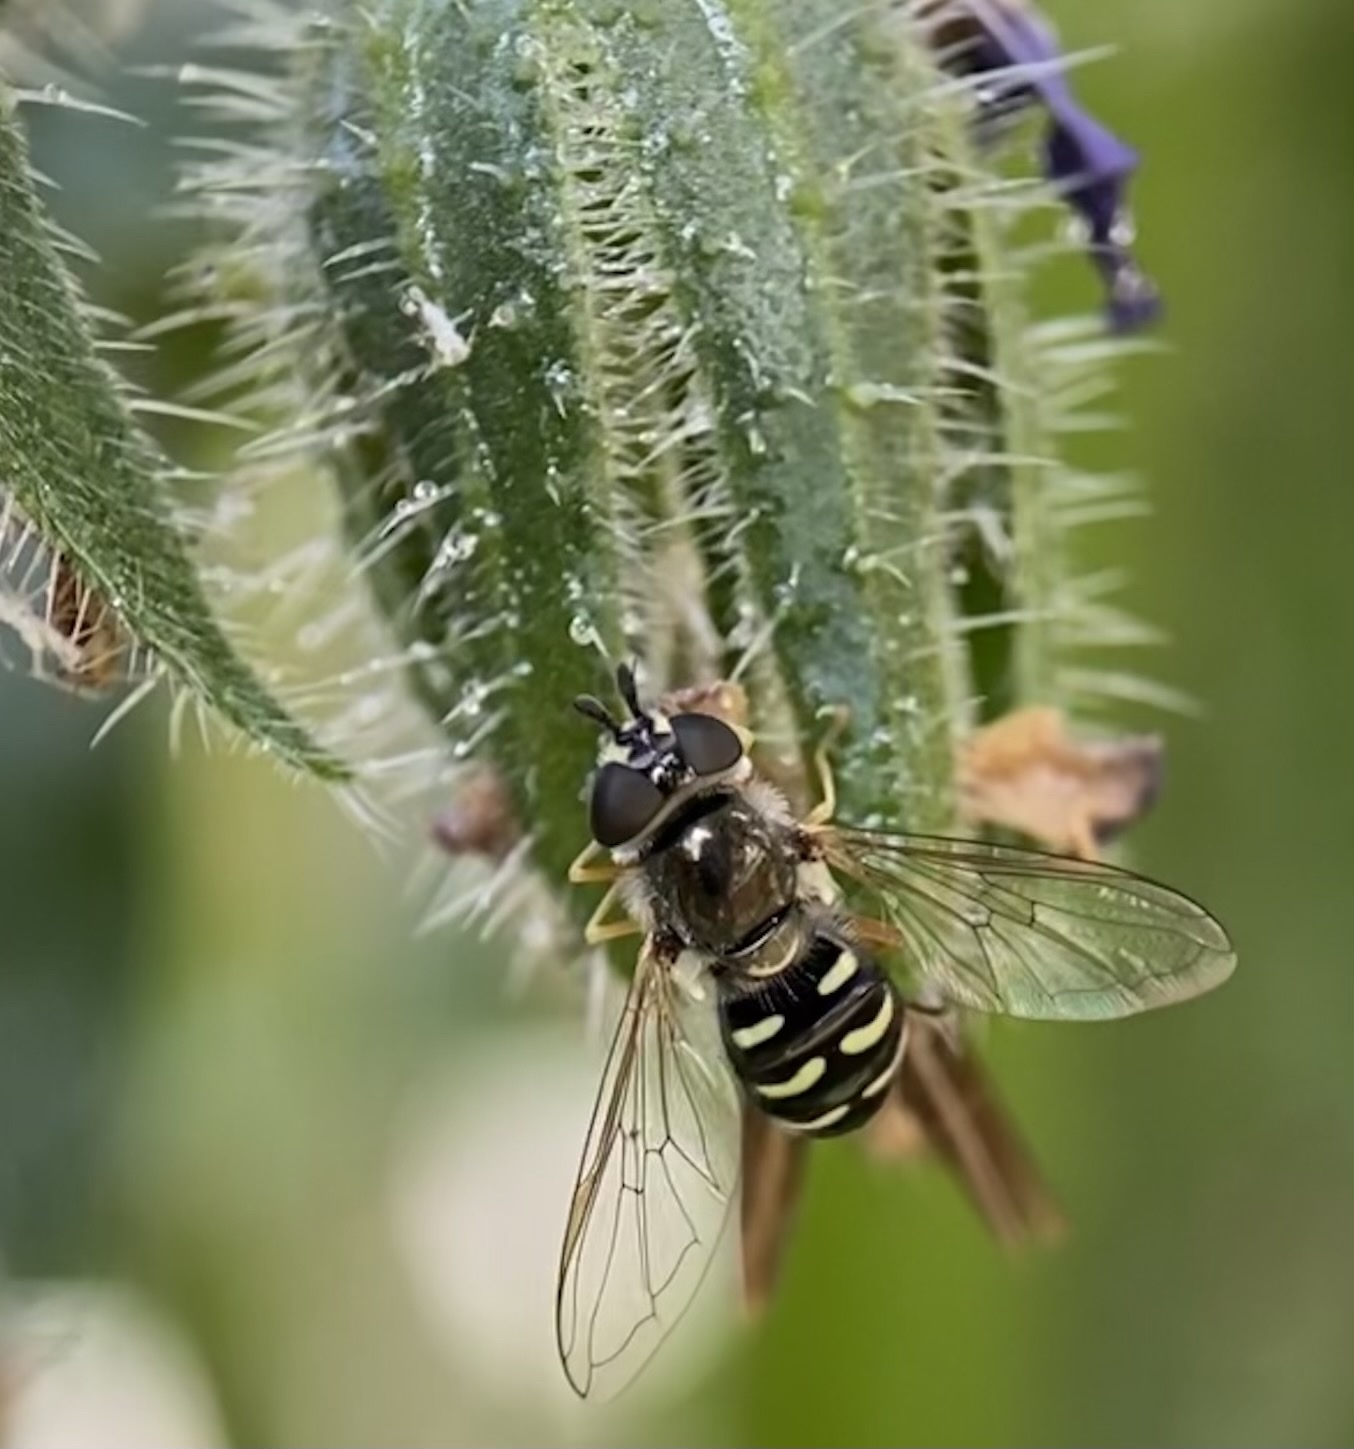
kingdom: Animalia
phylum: Arthropoda
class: Insecta
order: Diptera
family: Syrphidae
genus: Eupeodes
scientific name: Eupeodes volucris
